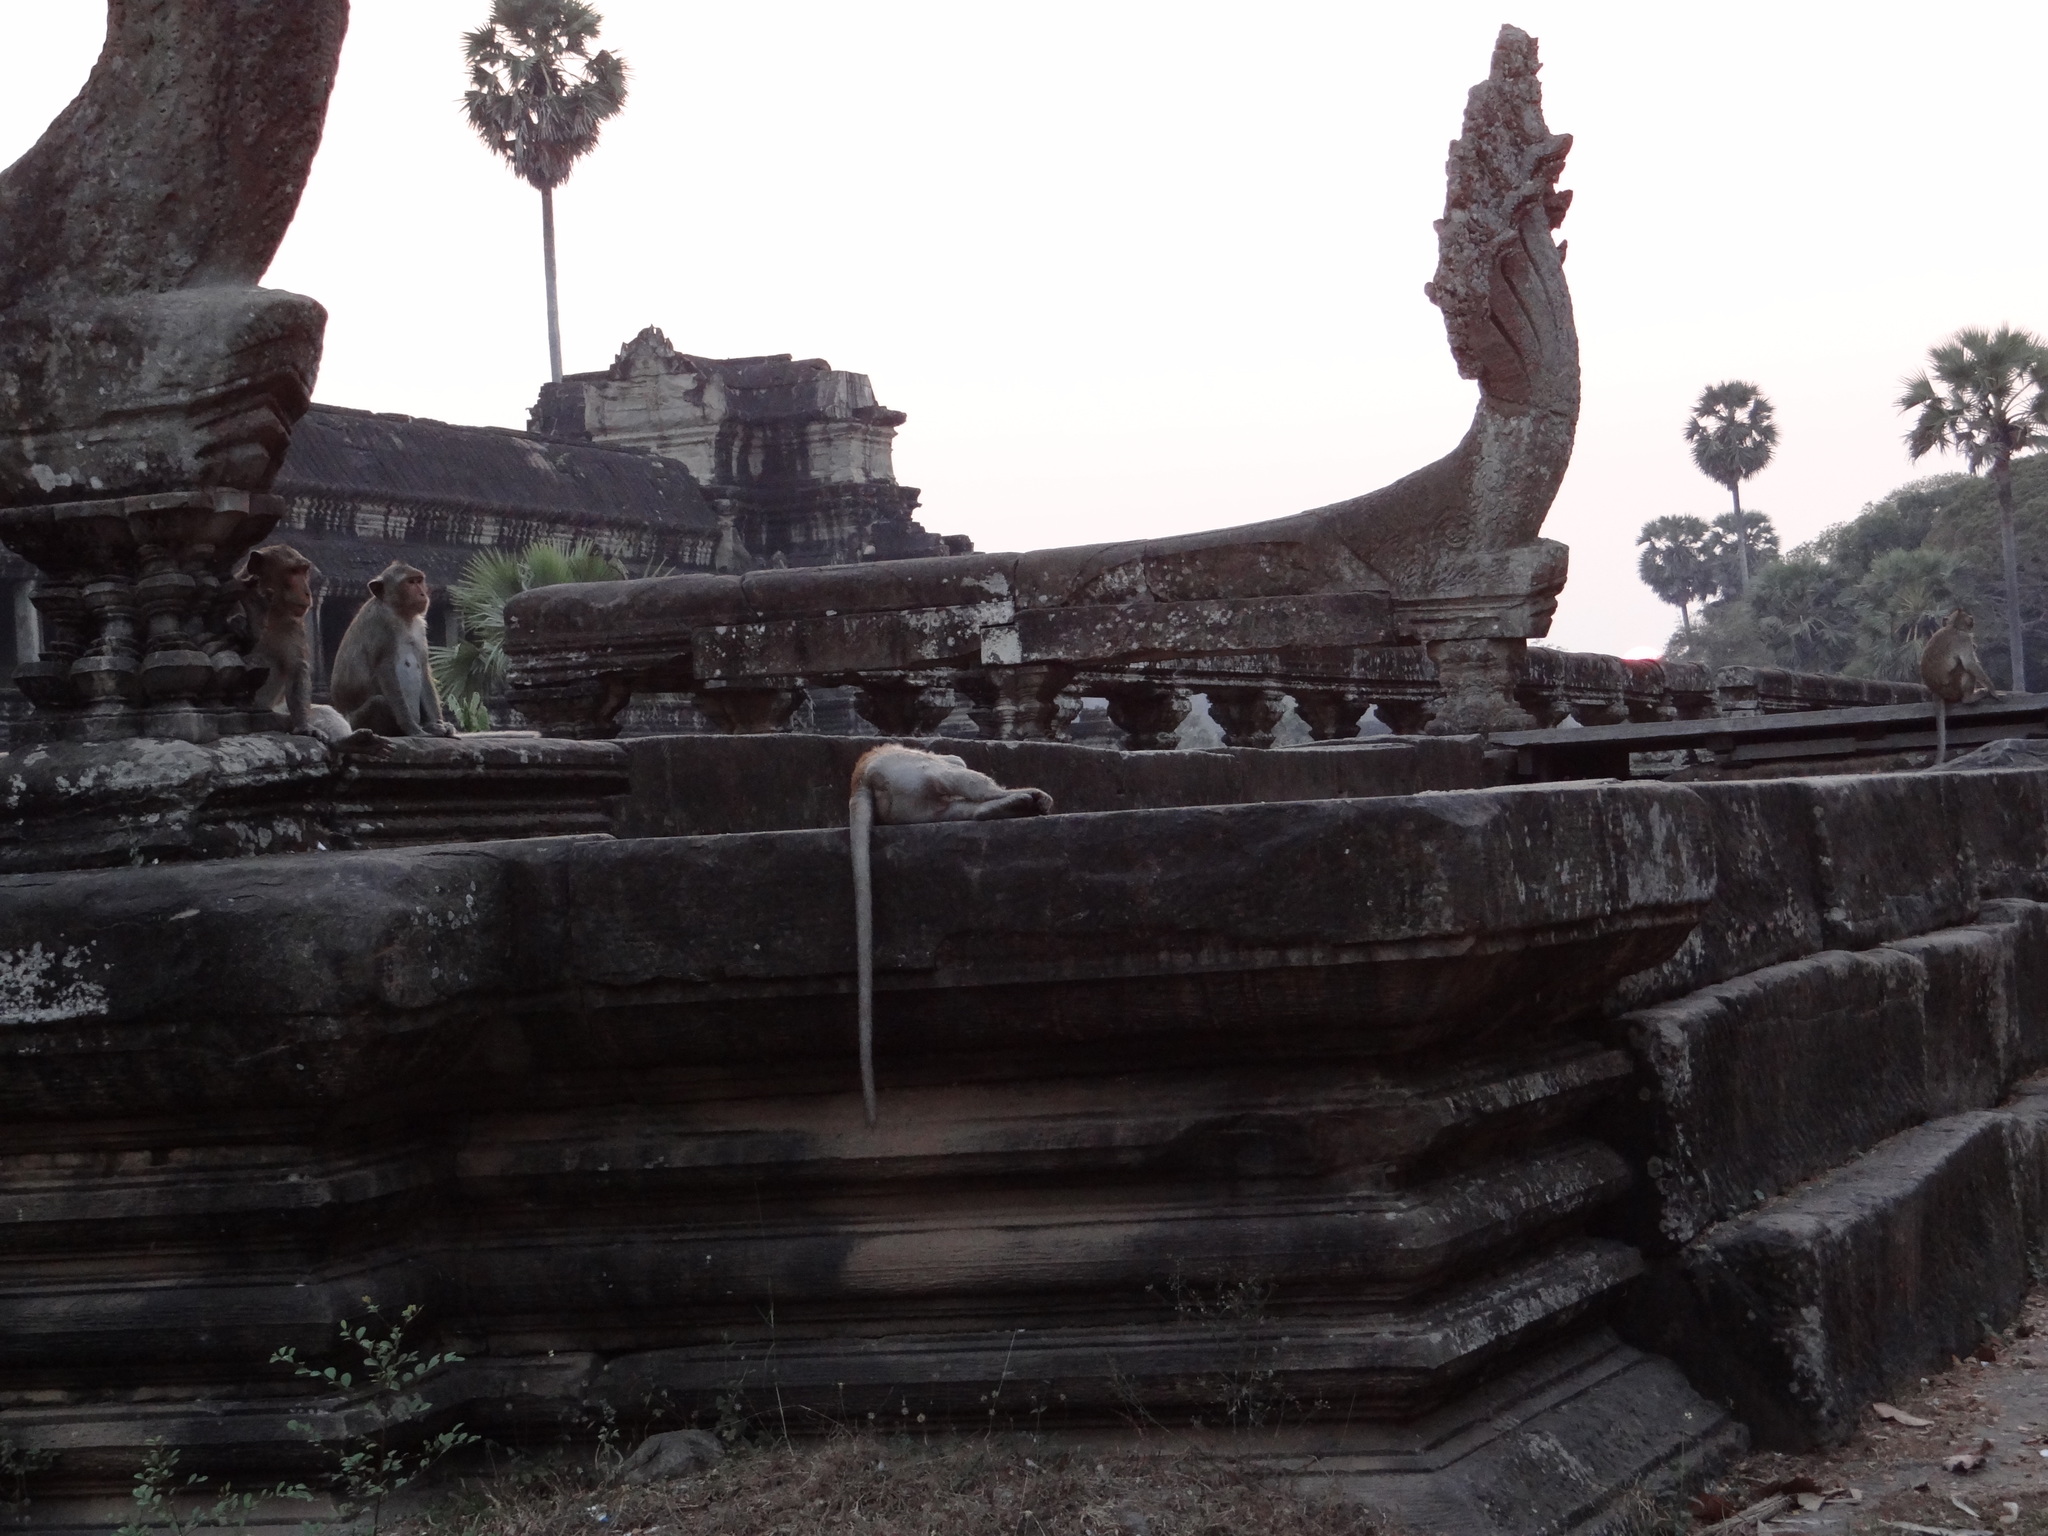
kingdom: Animalia
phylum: Chordata
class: Mammalia
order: Primates
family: Cercopithecidae
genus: Macaca
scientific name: Macaca fascicularis
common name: Crab-eating macaque
